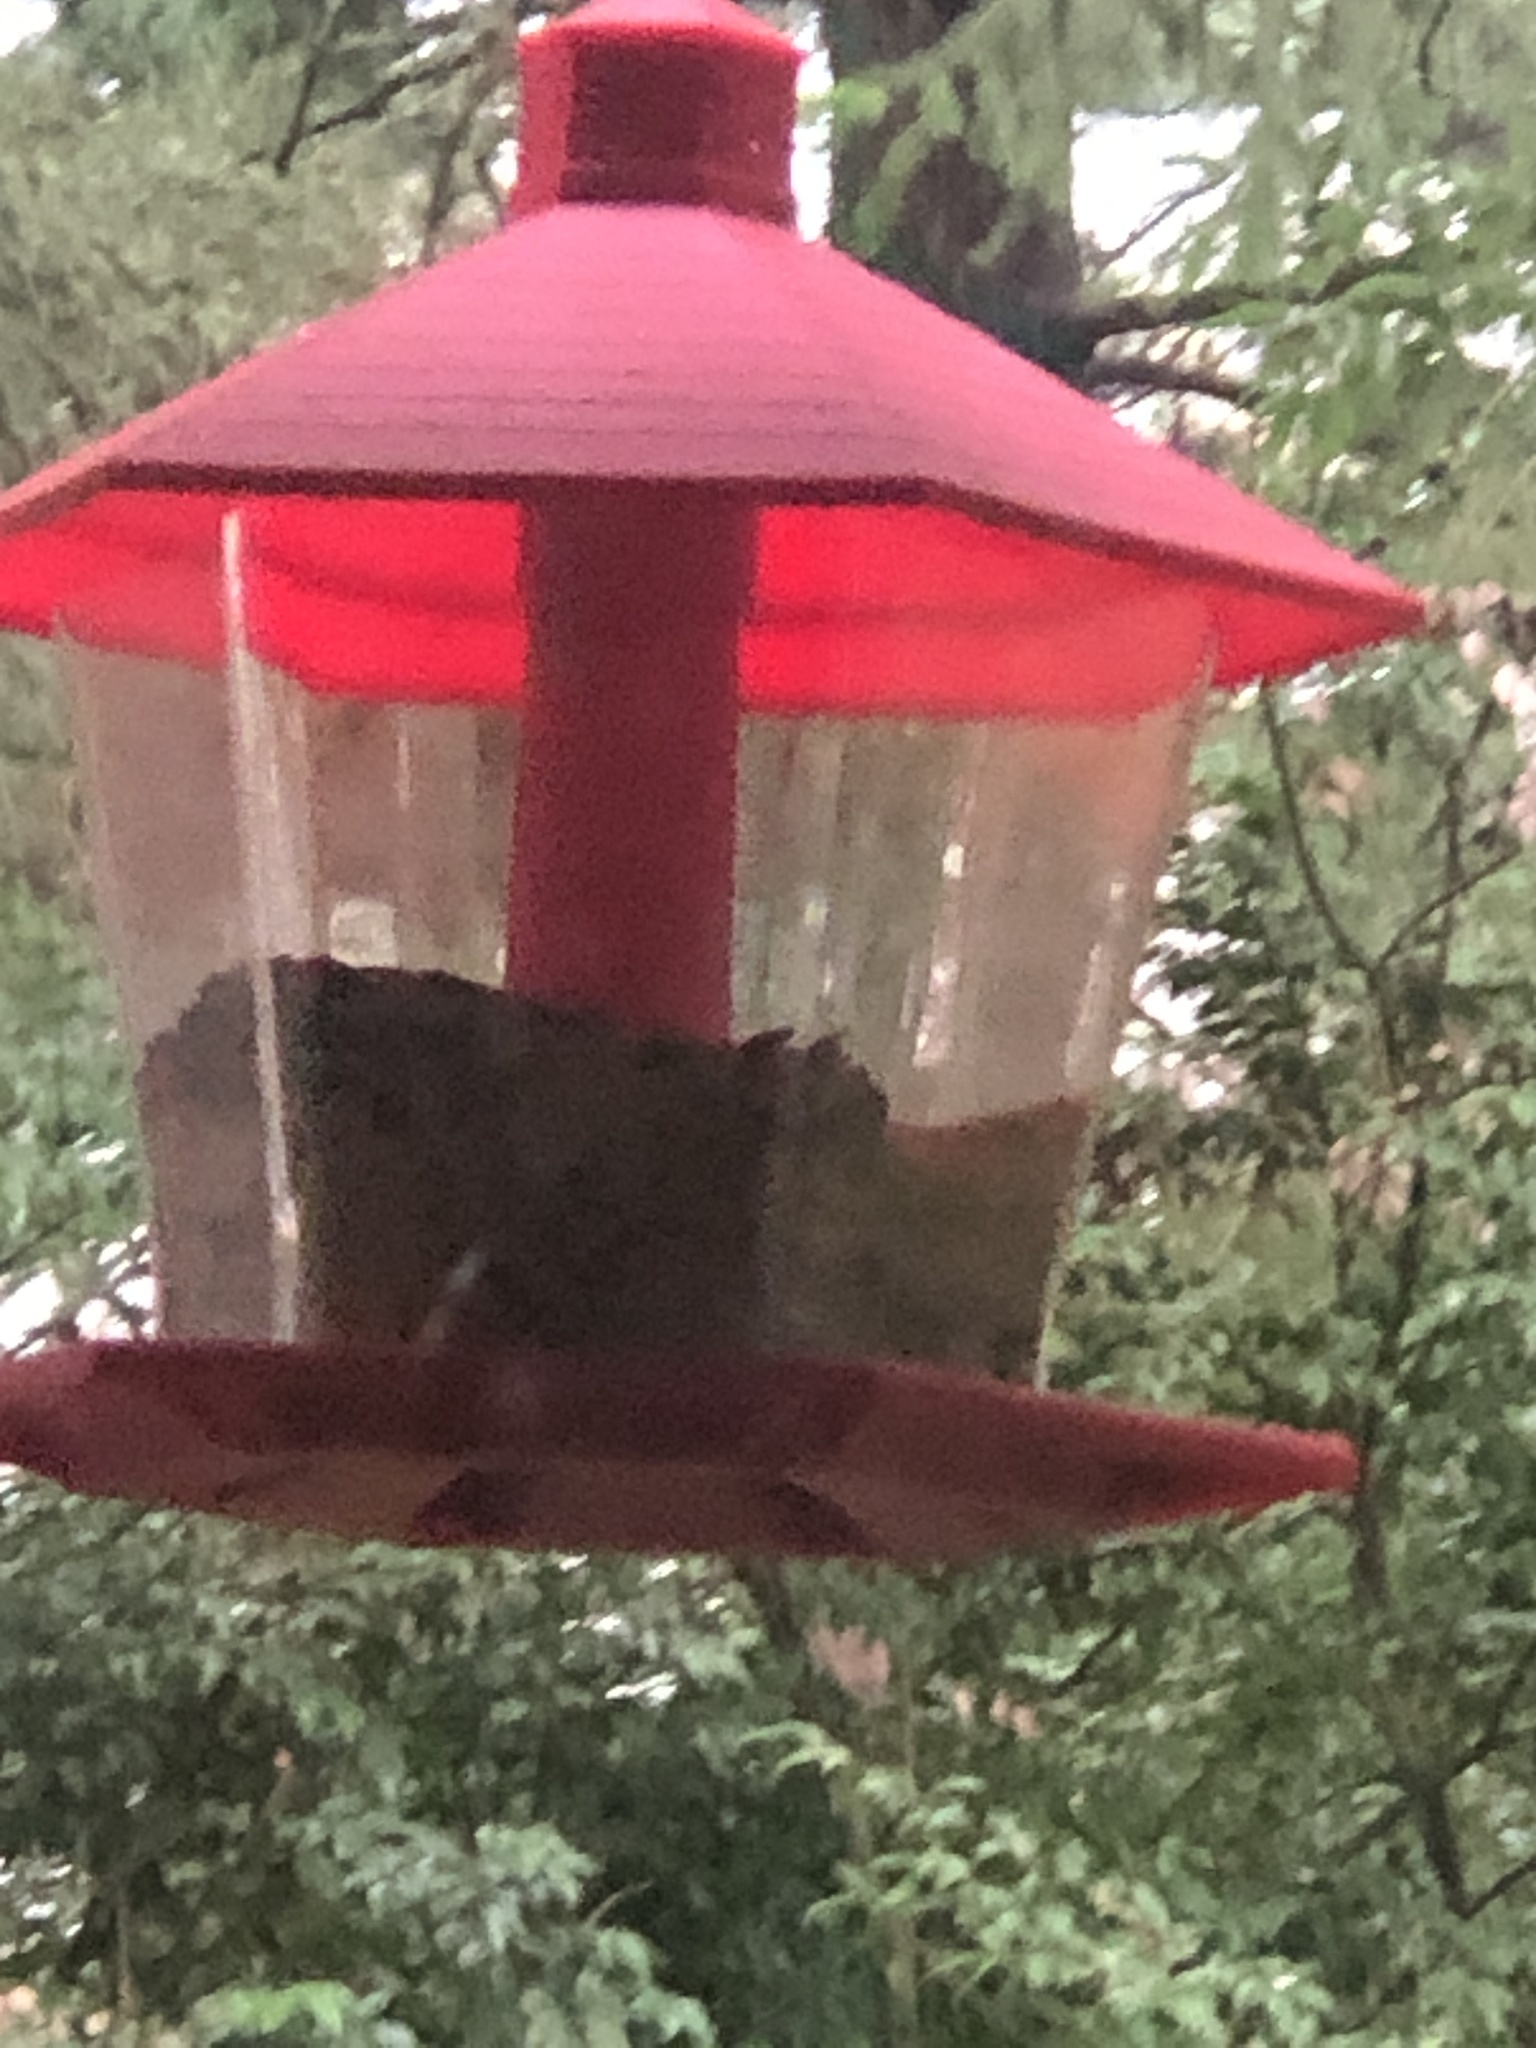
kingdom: Animalia
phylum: Chordata
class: Aves
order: Passeriformes
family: Corvidae
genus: Cyanocitta
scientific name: Cyanocitta stelleri
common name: Steller's jay
